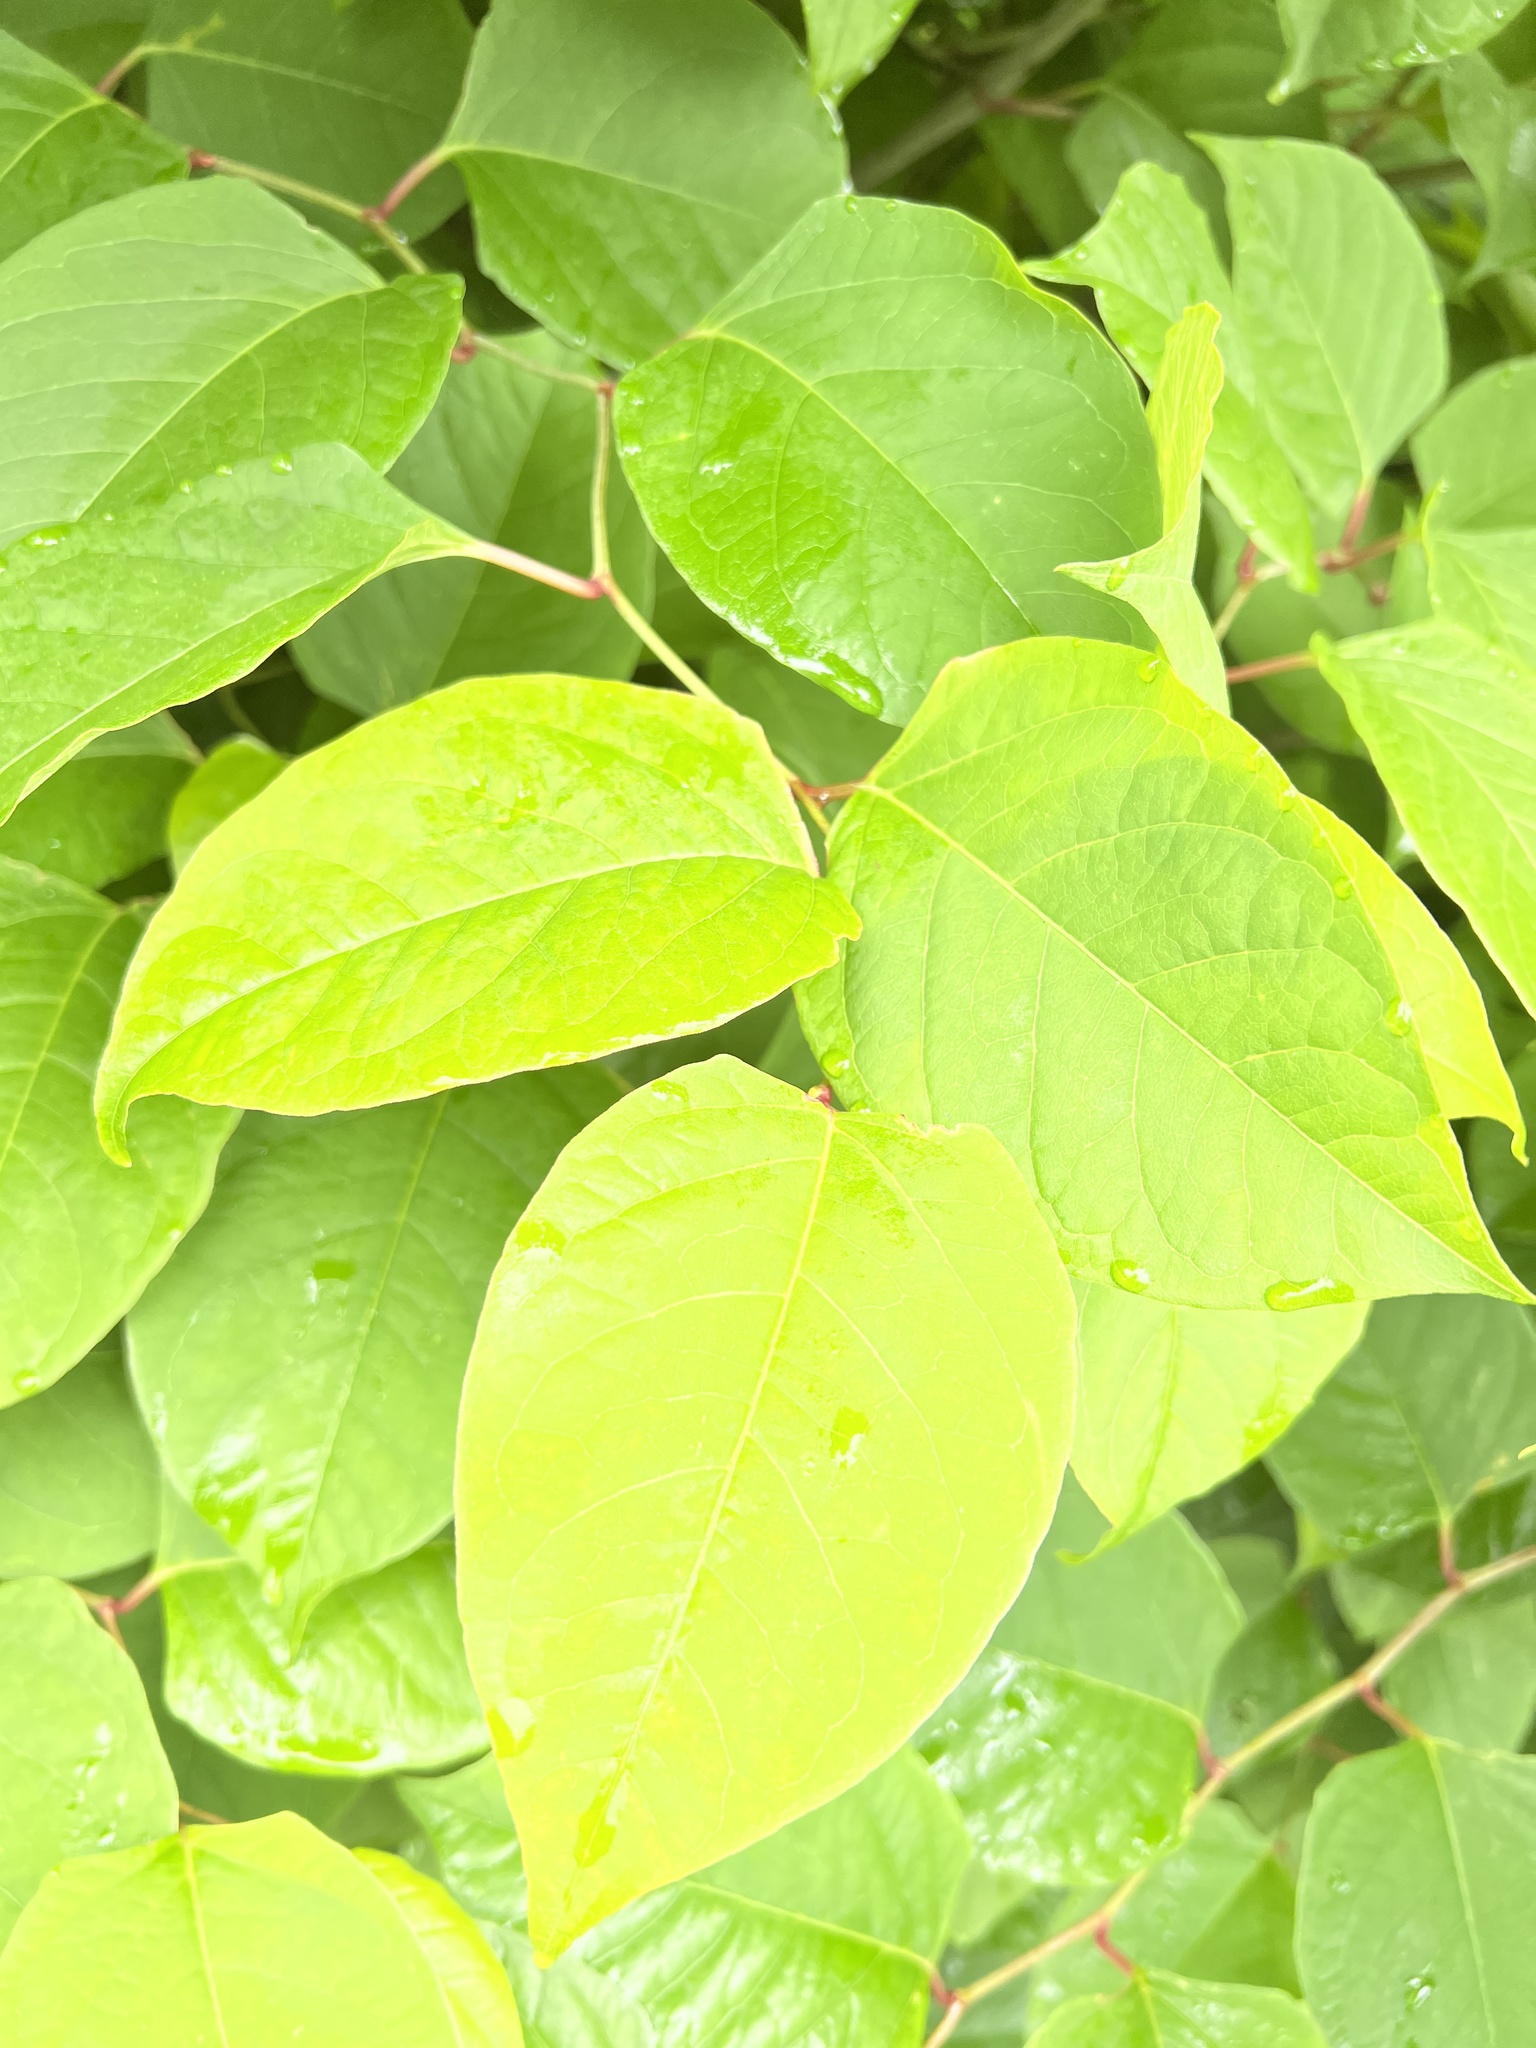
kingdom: Plantae
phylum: Tracheophyta
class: Magnoliopsida
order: Caryophyllales
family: Polygonaceae
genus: Reynoutria
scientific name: Reynoutria japonica
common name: Japanese knotweed
